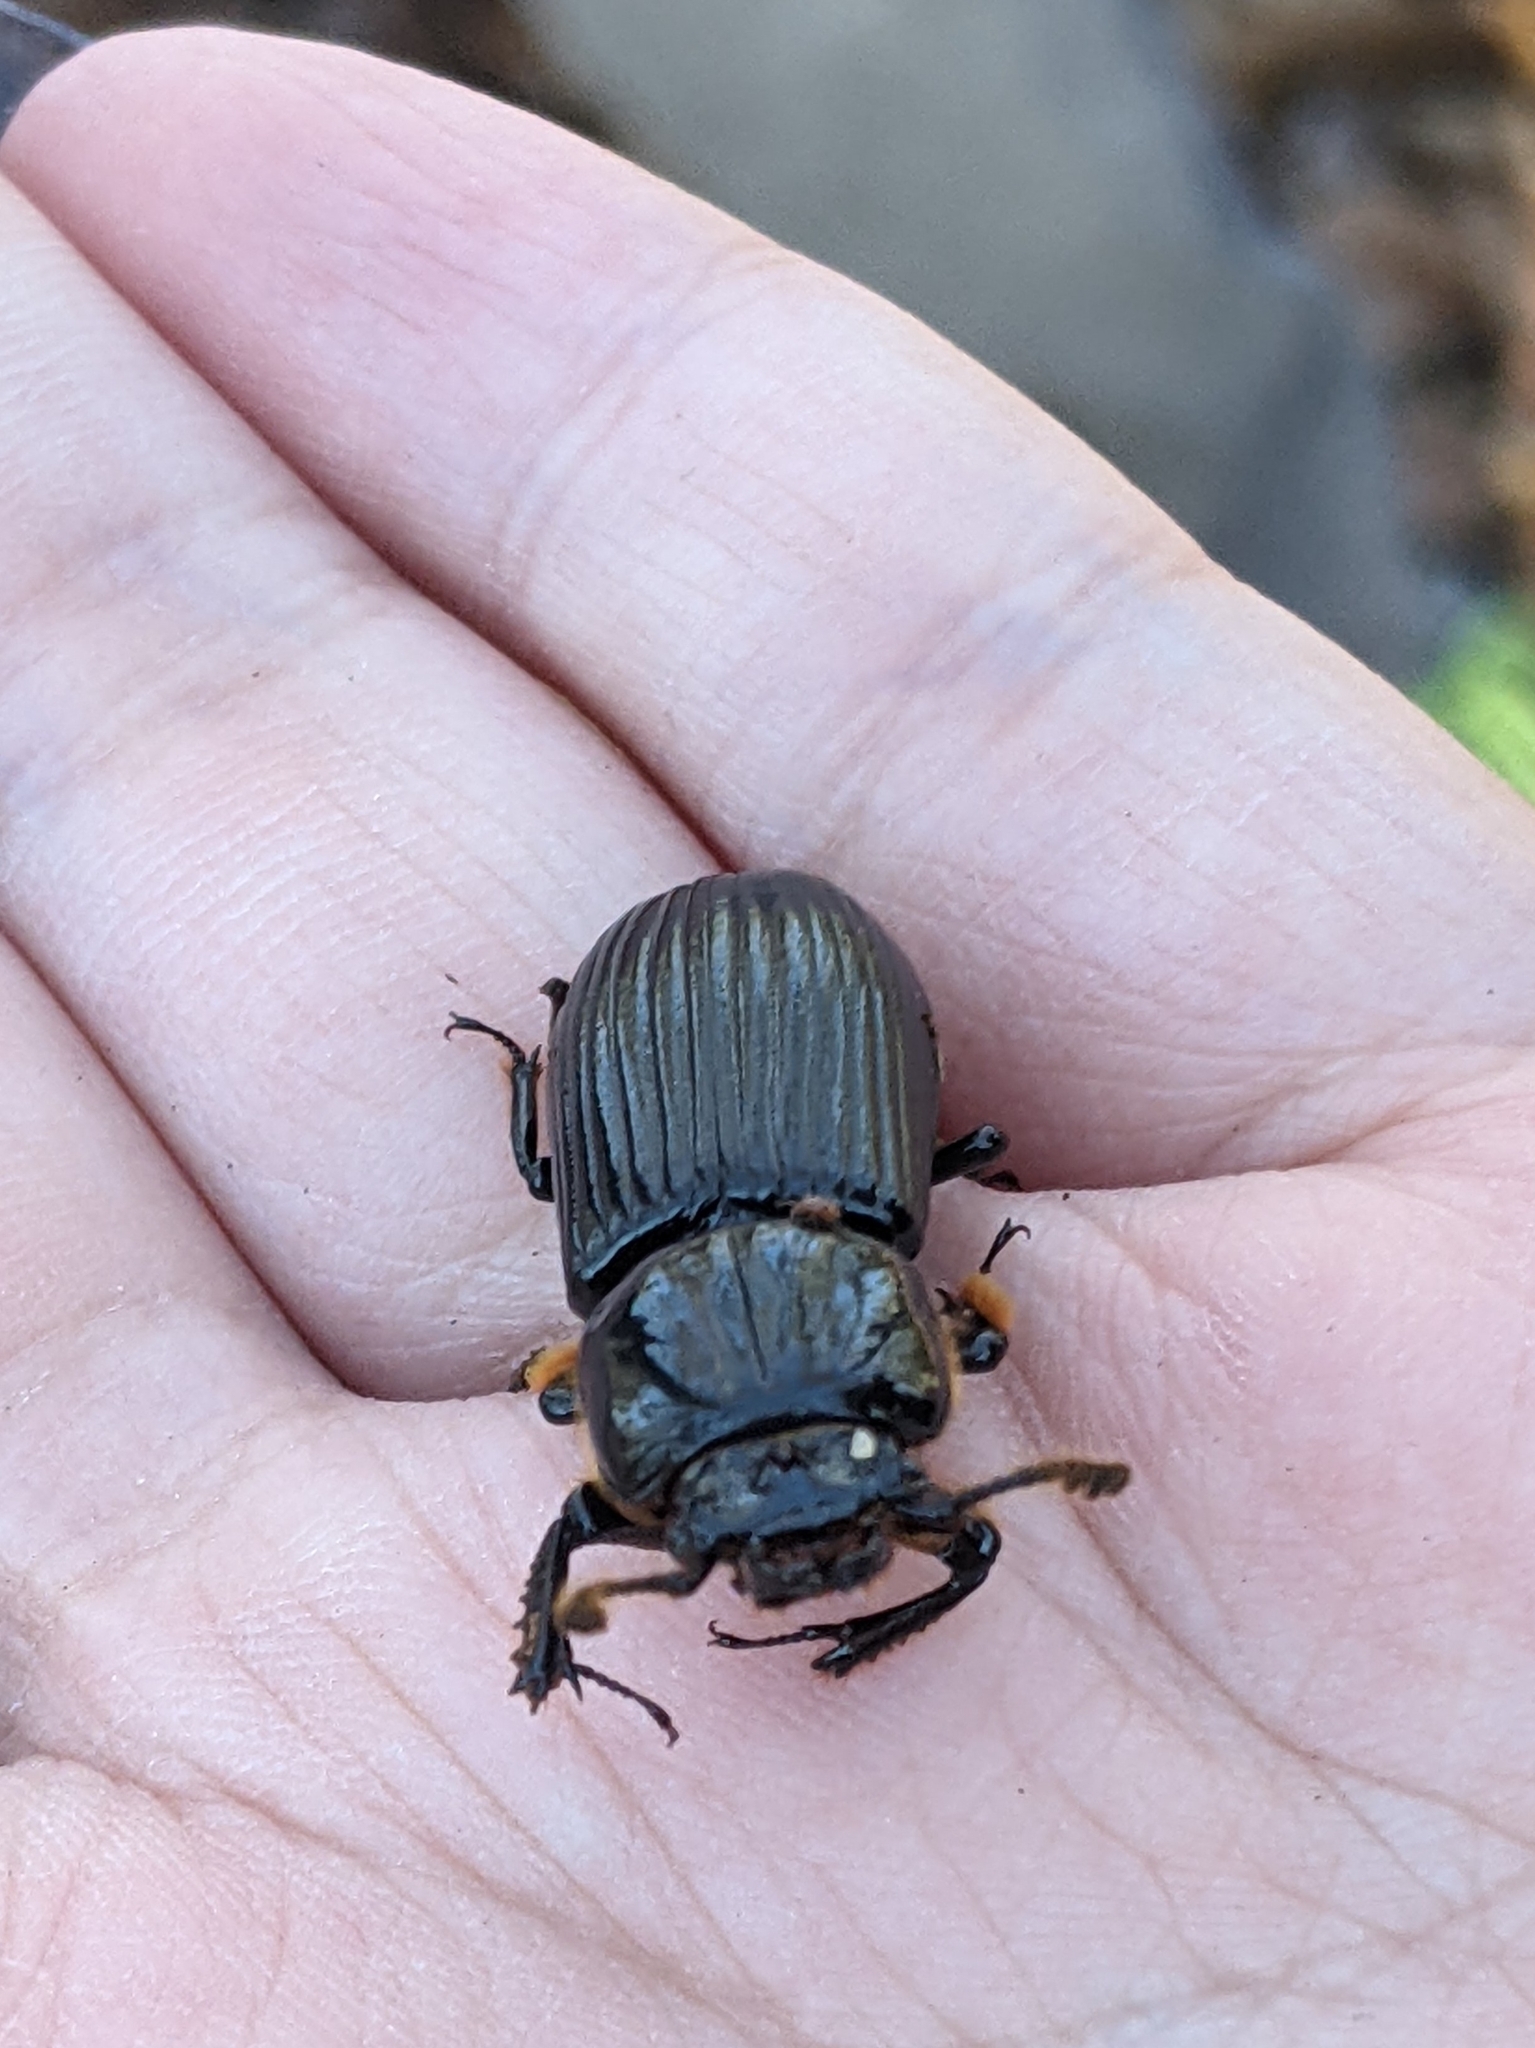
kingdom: Animalia
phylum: Arthropoda
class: Insecta
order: Coleoptera
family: Passalidae
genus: Odontotaenius
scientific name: Odontotaenius disjunctus
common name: Patent leather beetle
